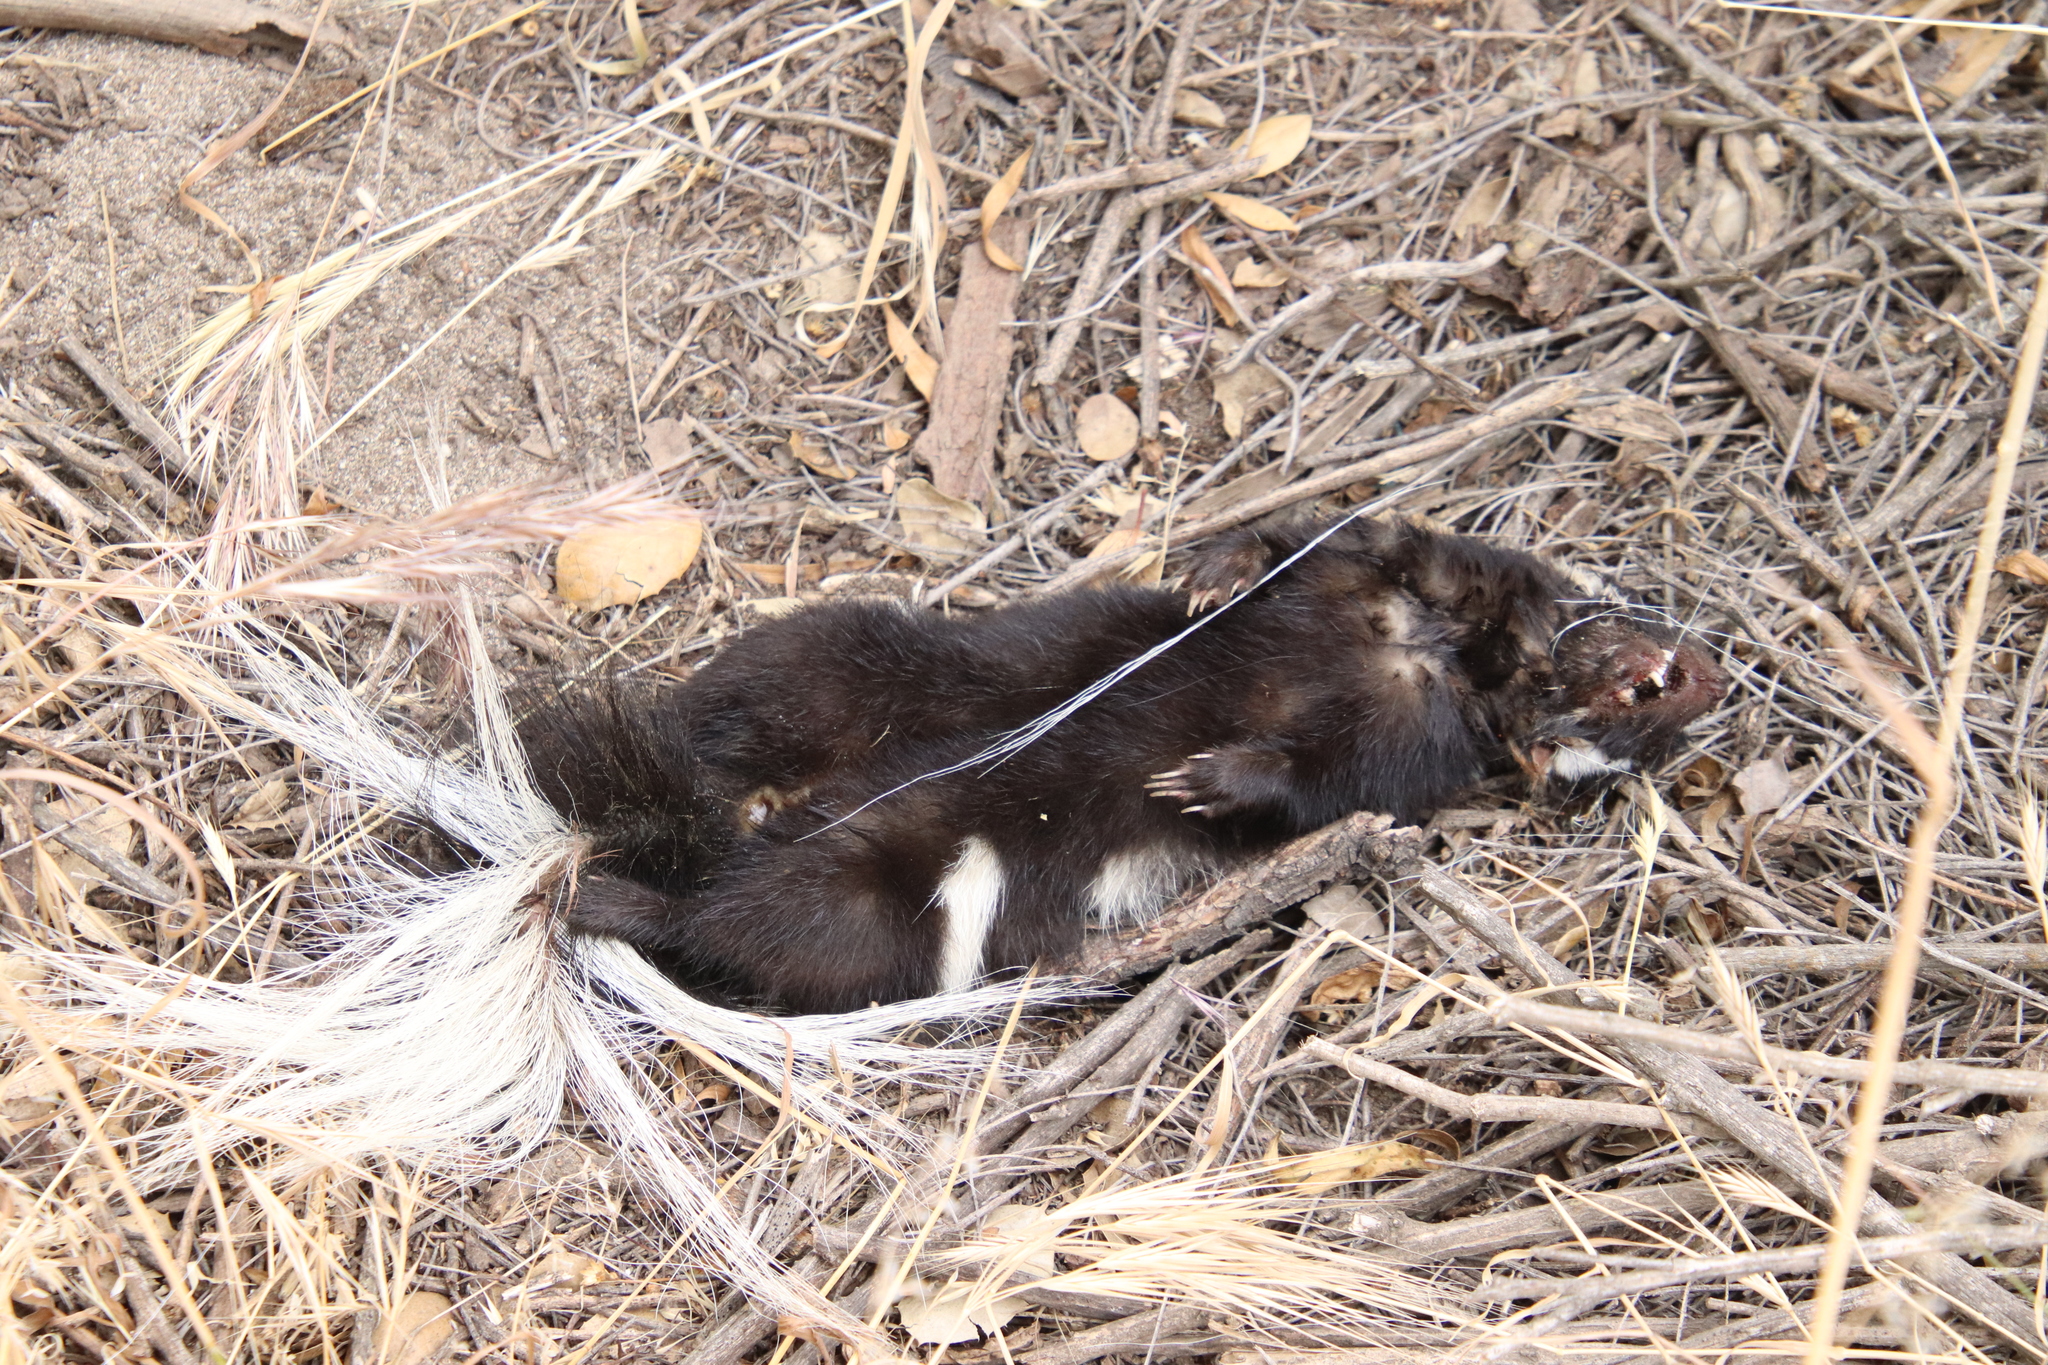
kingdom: Animalia
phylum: Chordata
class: Mammalia
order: Carnivora
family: Mephitidae
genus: Spilogale
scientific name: Spilogale gracilis
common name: Western spotted skunk
